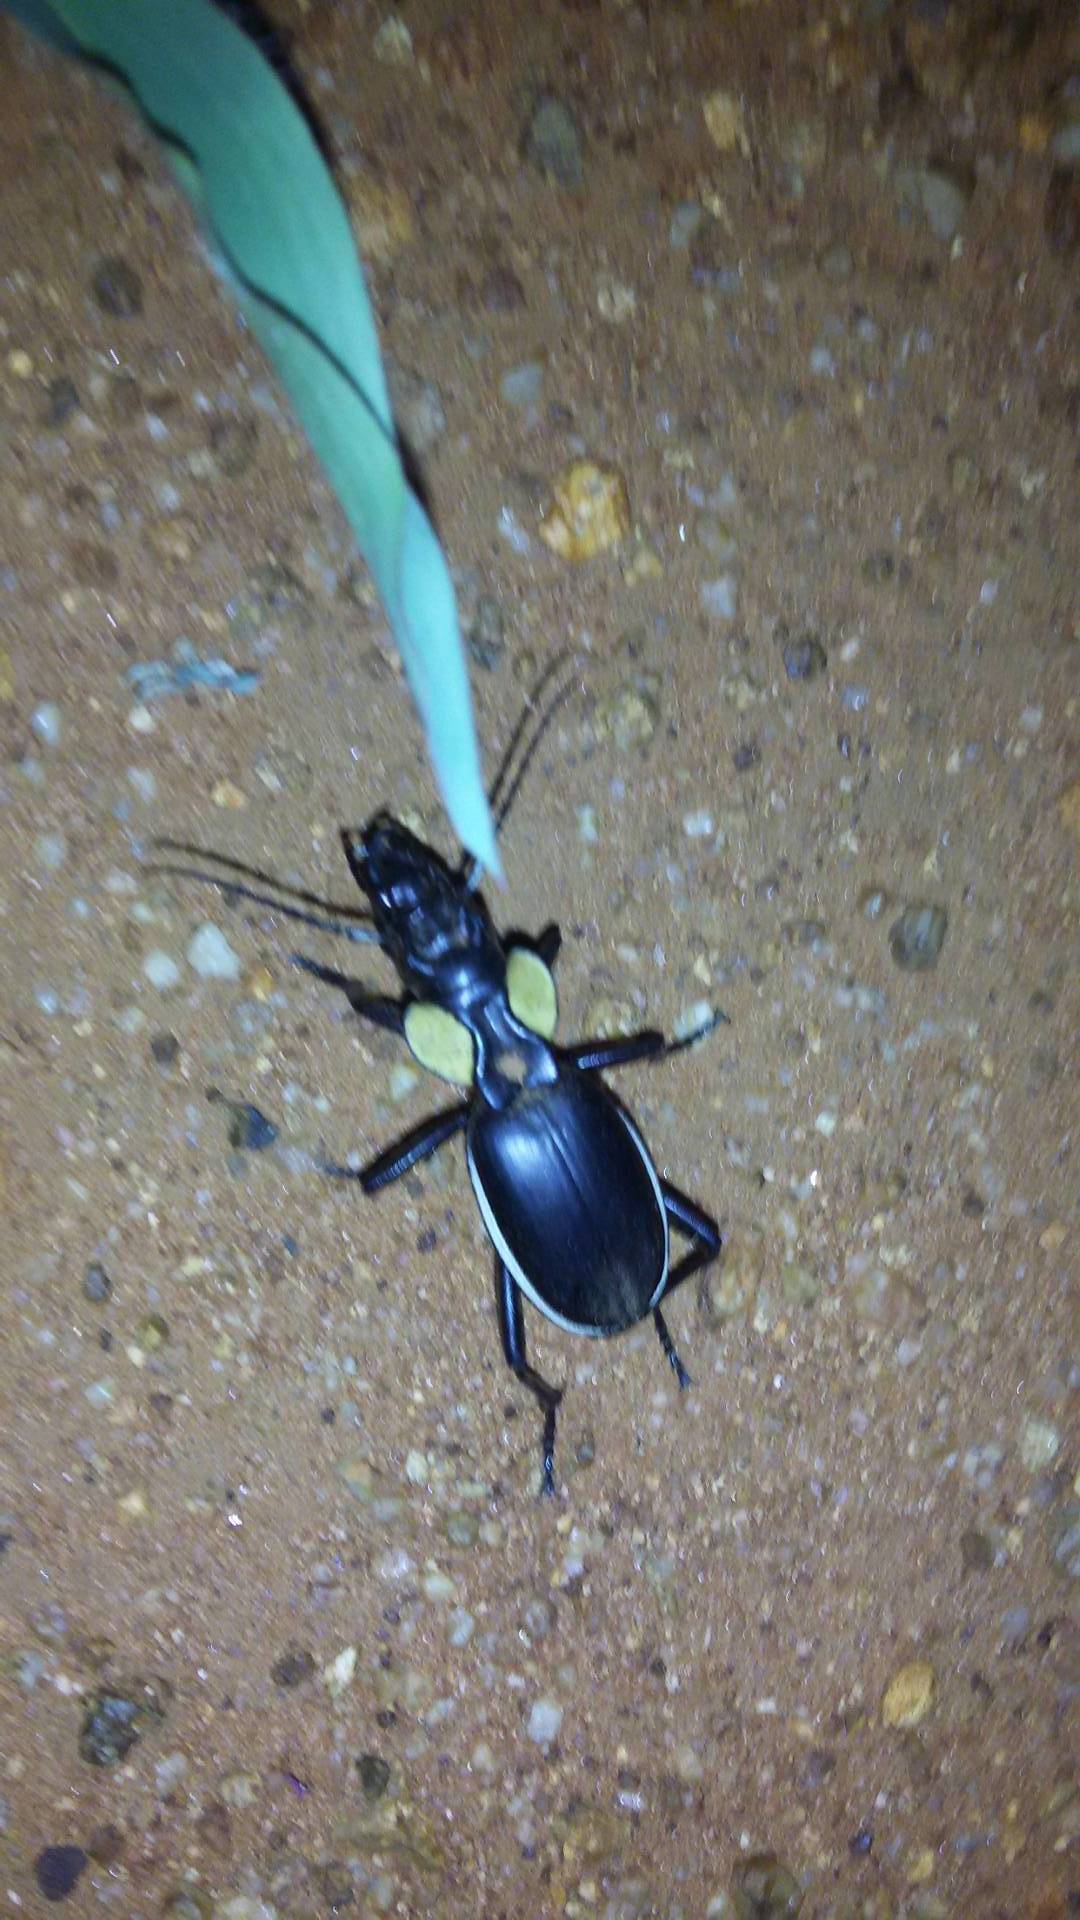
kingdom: Animalia
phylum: Arthropoda
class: Insecta
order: Coleoptera
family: Carabidae
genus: Anthia
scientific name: Anthia thoracica
